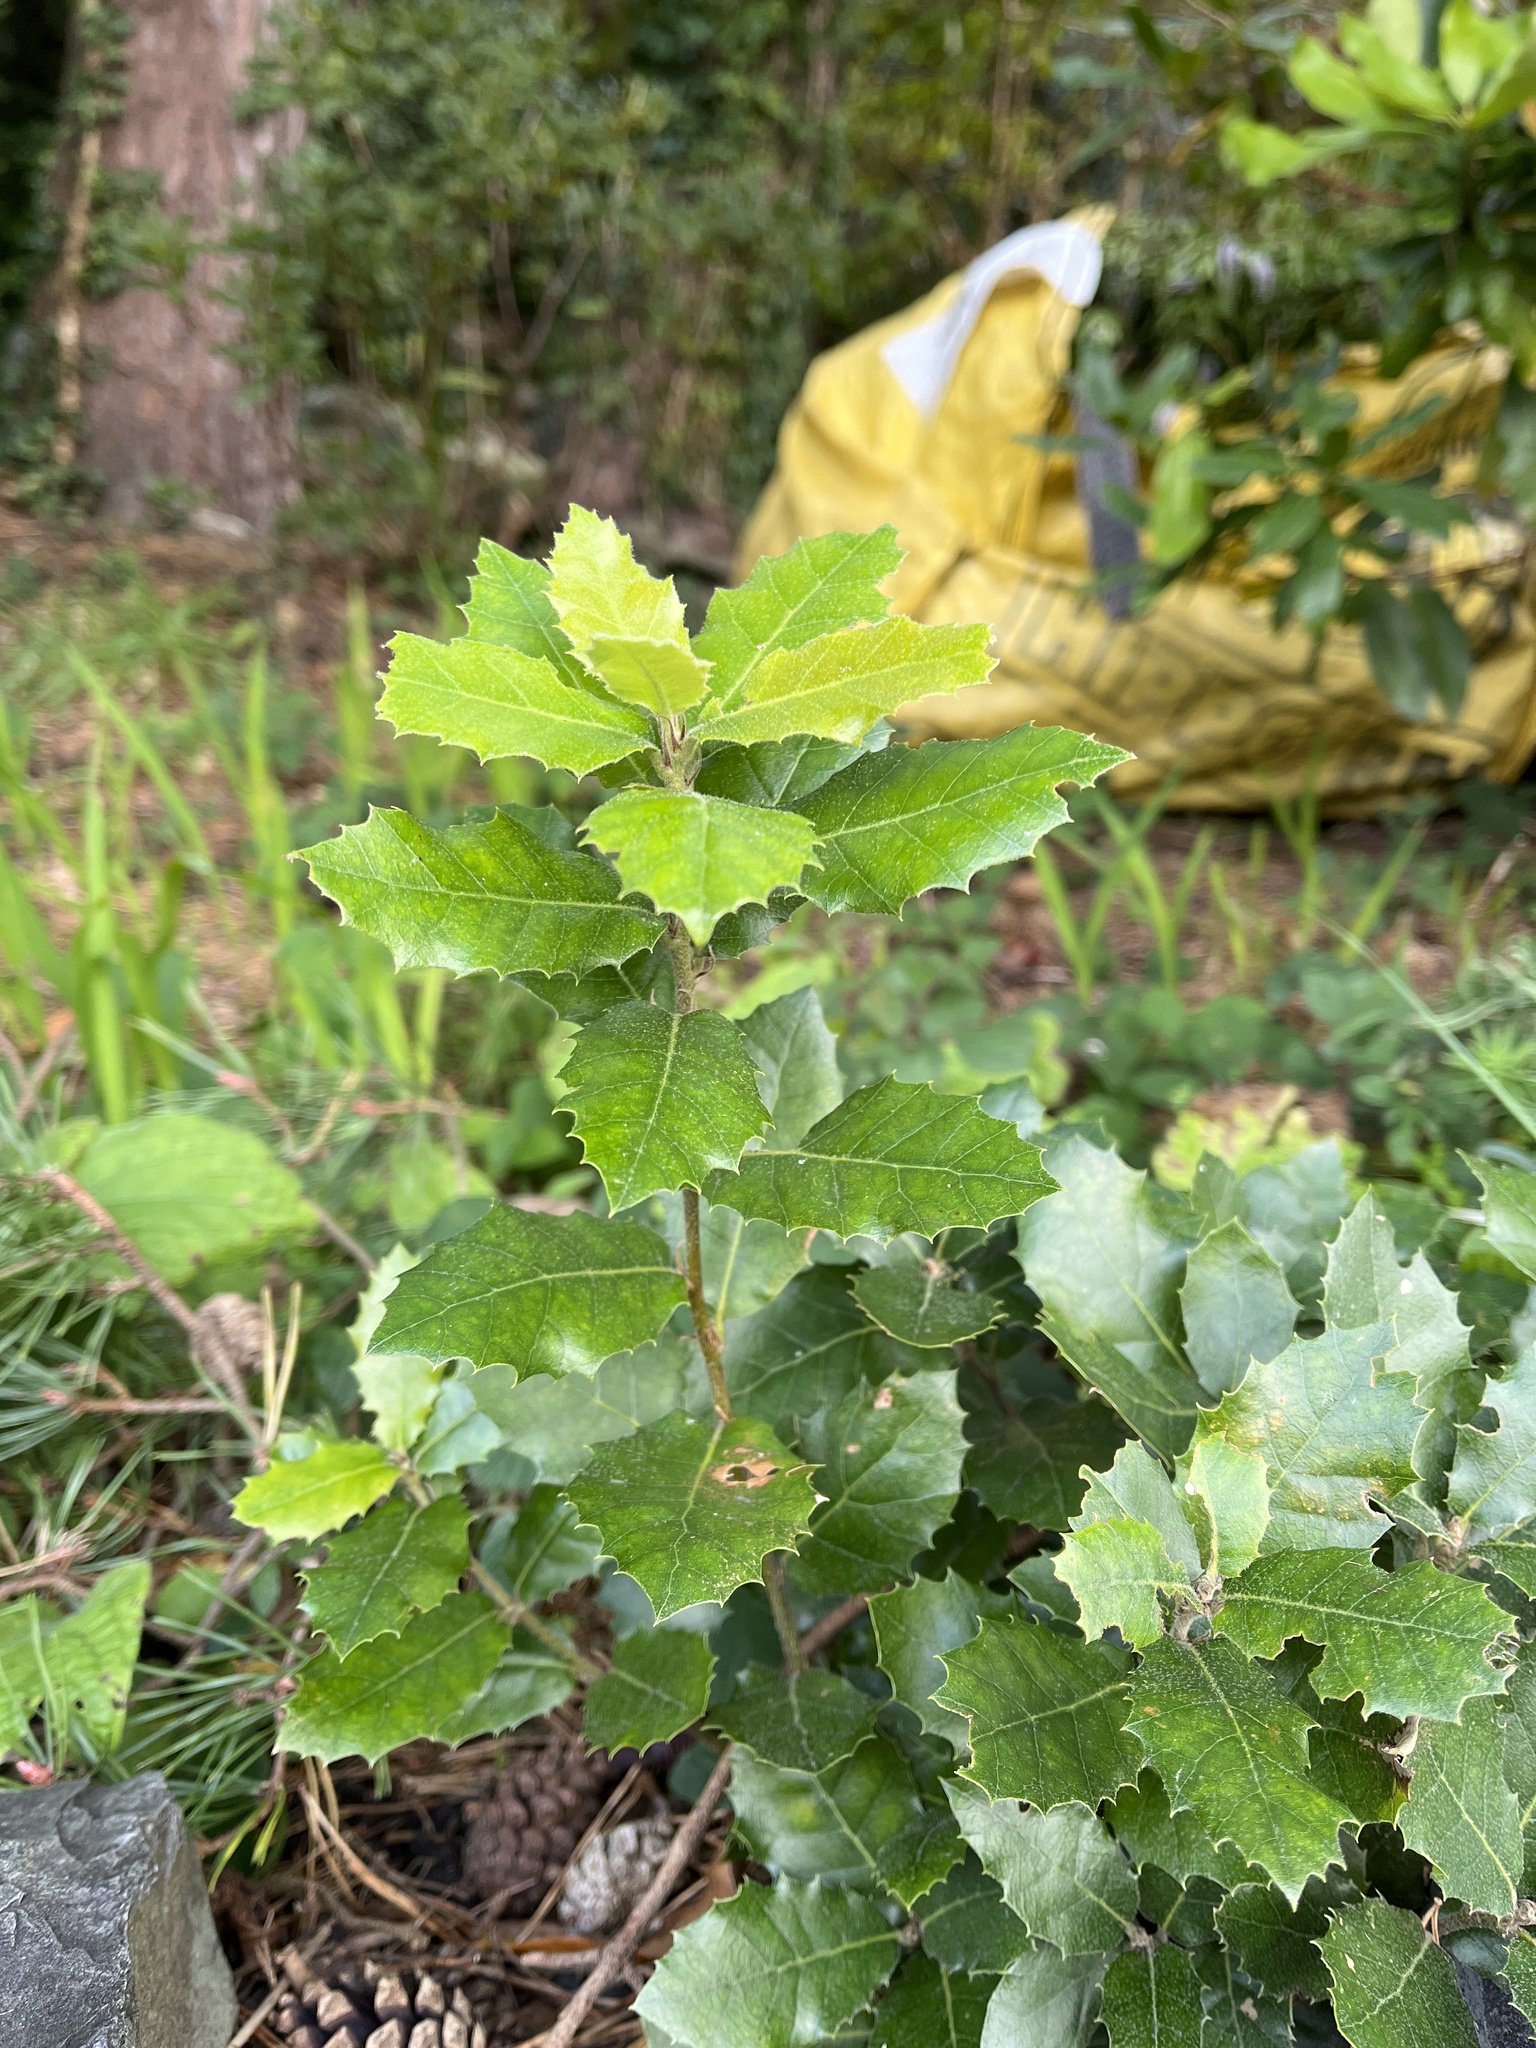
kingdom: Plantae
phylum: Tracheophyta
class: Magnoliopsida
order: Fagales
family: Fagaceae
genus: Quercus
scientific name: Quercus ilex
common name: Evergreen oak
